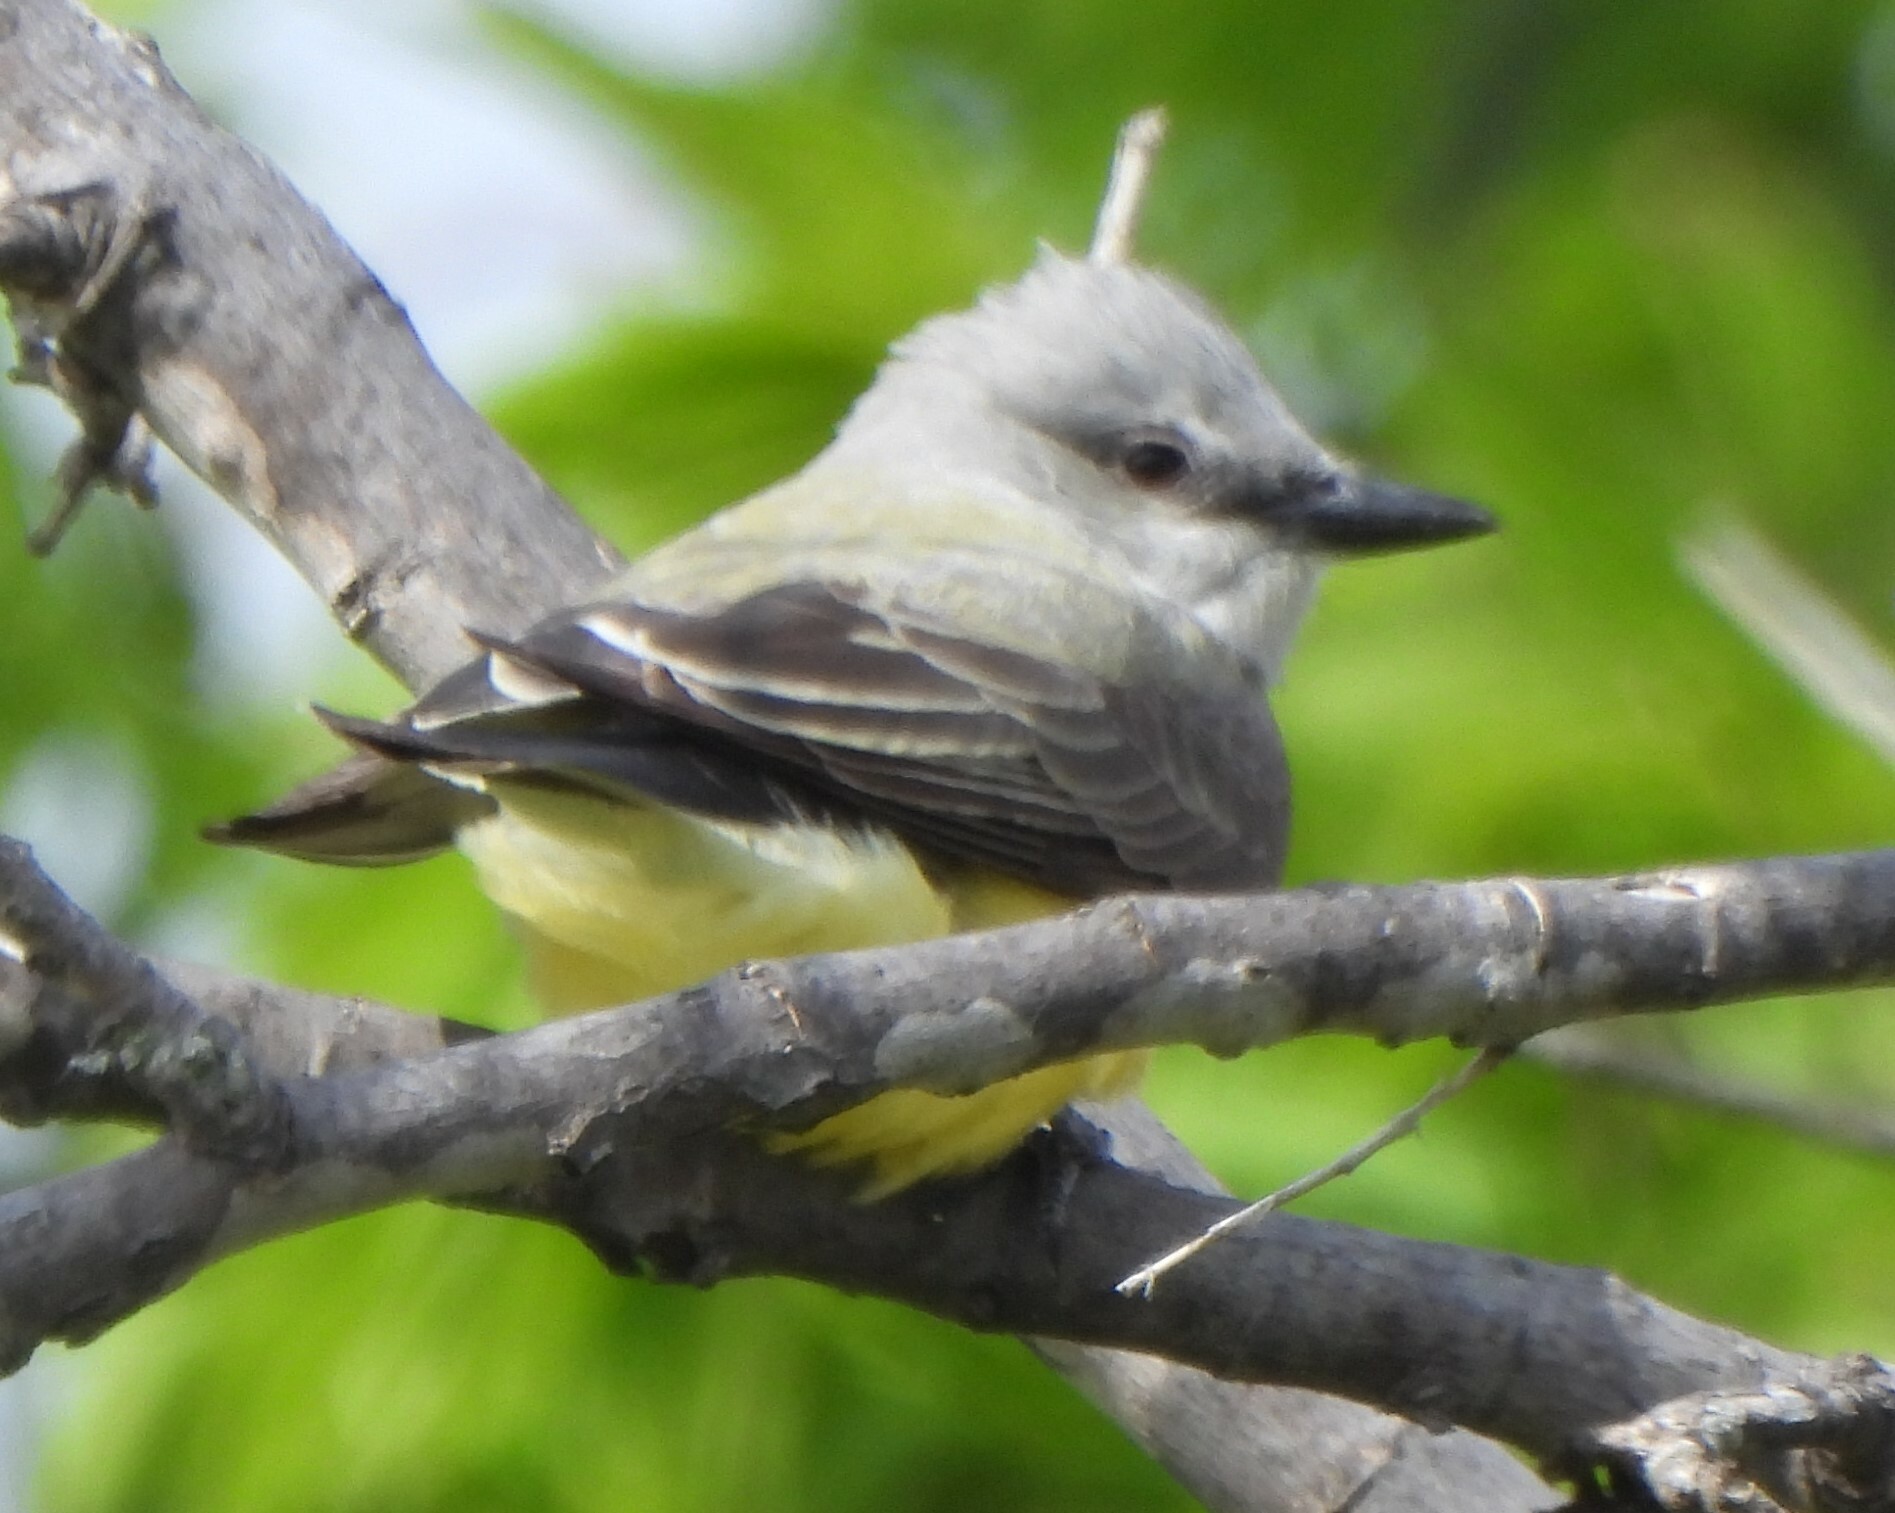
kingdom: Animalia
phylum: Chordata
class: Aves
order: Passeriformes
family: Tyrannidae
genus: Tyrannus
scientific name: Tyrannus verticalis
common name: Western kingbird
